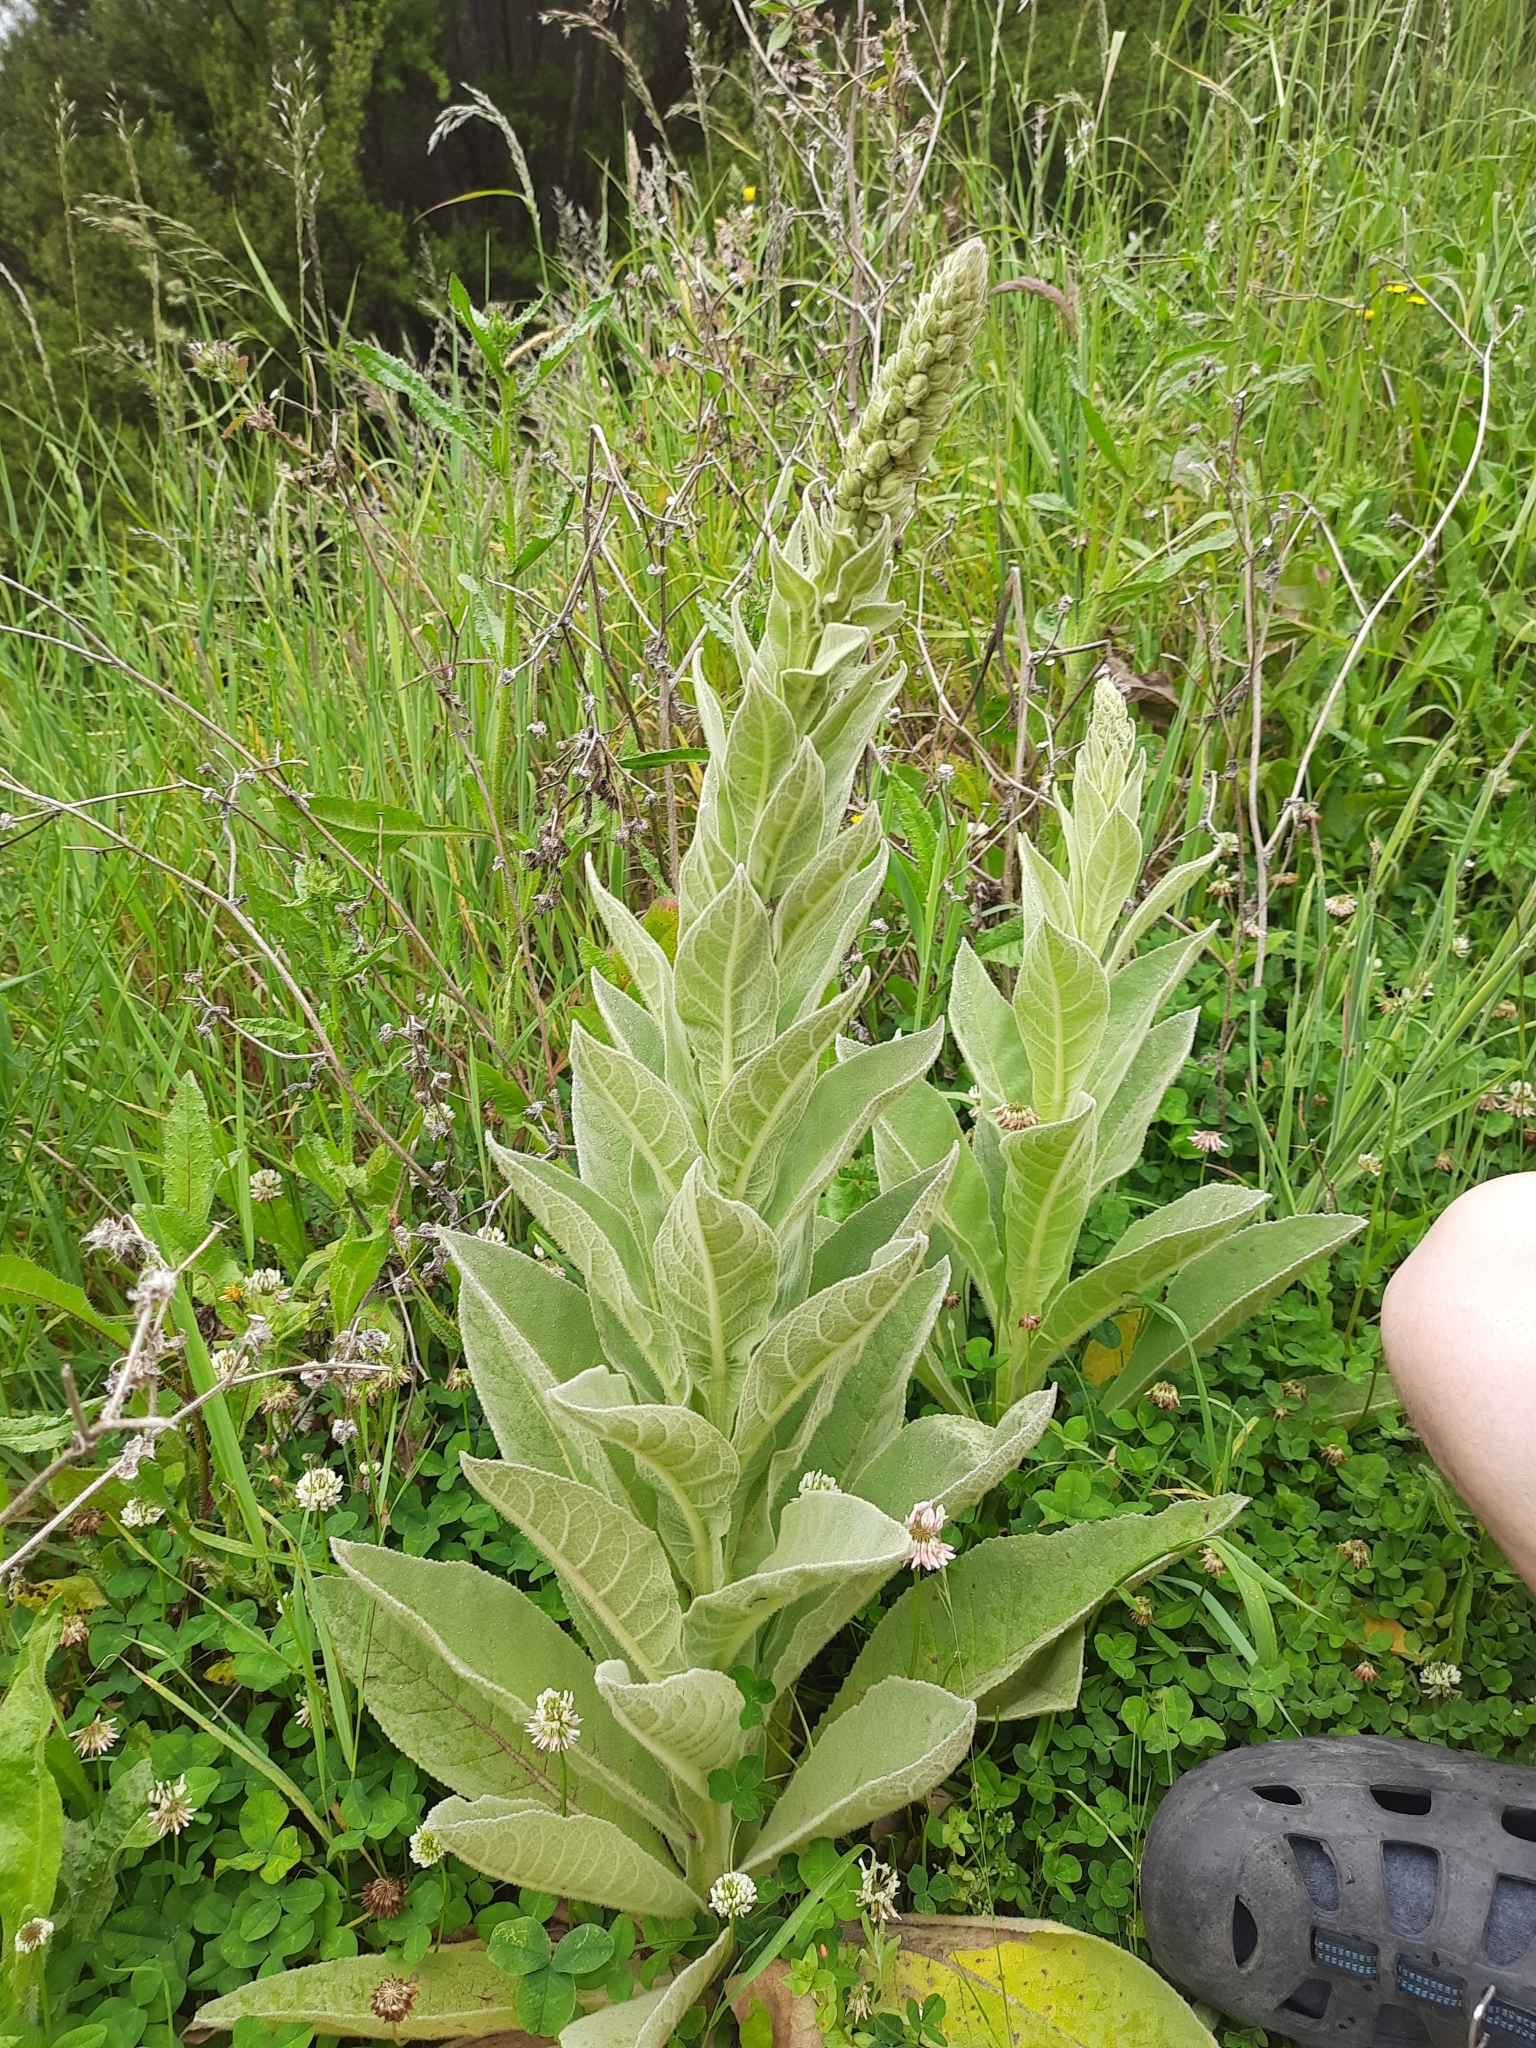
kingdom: Plantae
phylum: Tracheophyta
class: Magnoliopsida
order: Lamiales
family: Scrophulariaceae
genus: Verbascum
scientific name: Verbascum thapsus
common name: Common mullein
